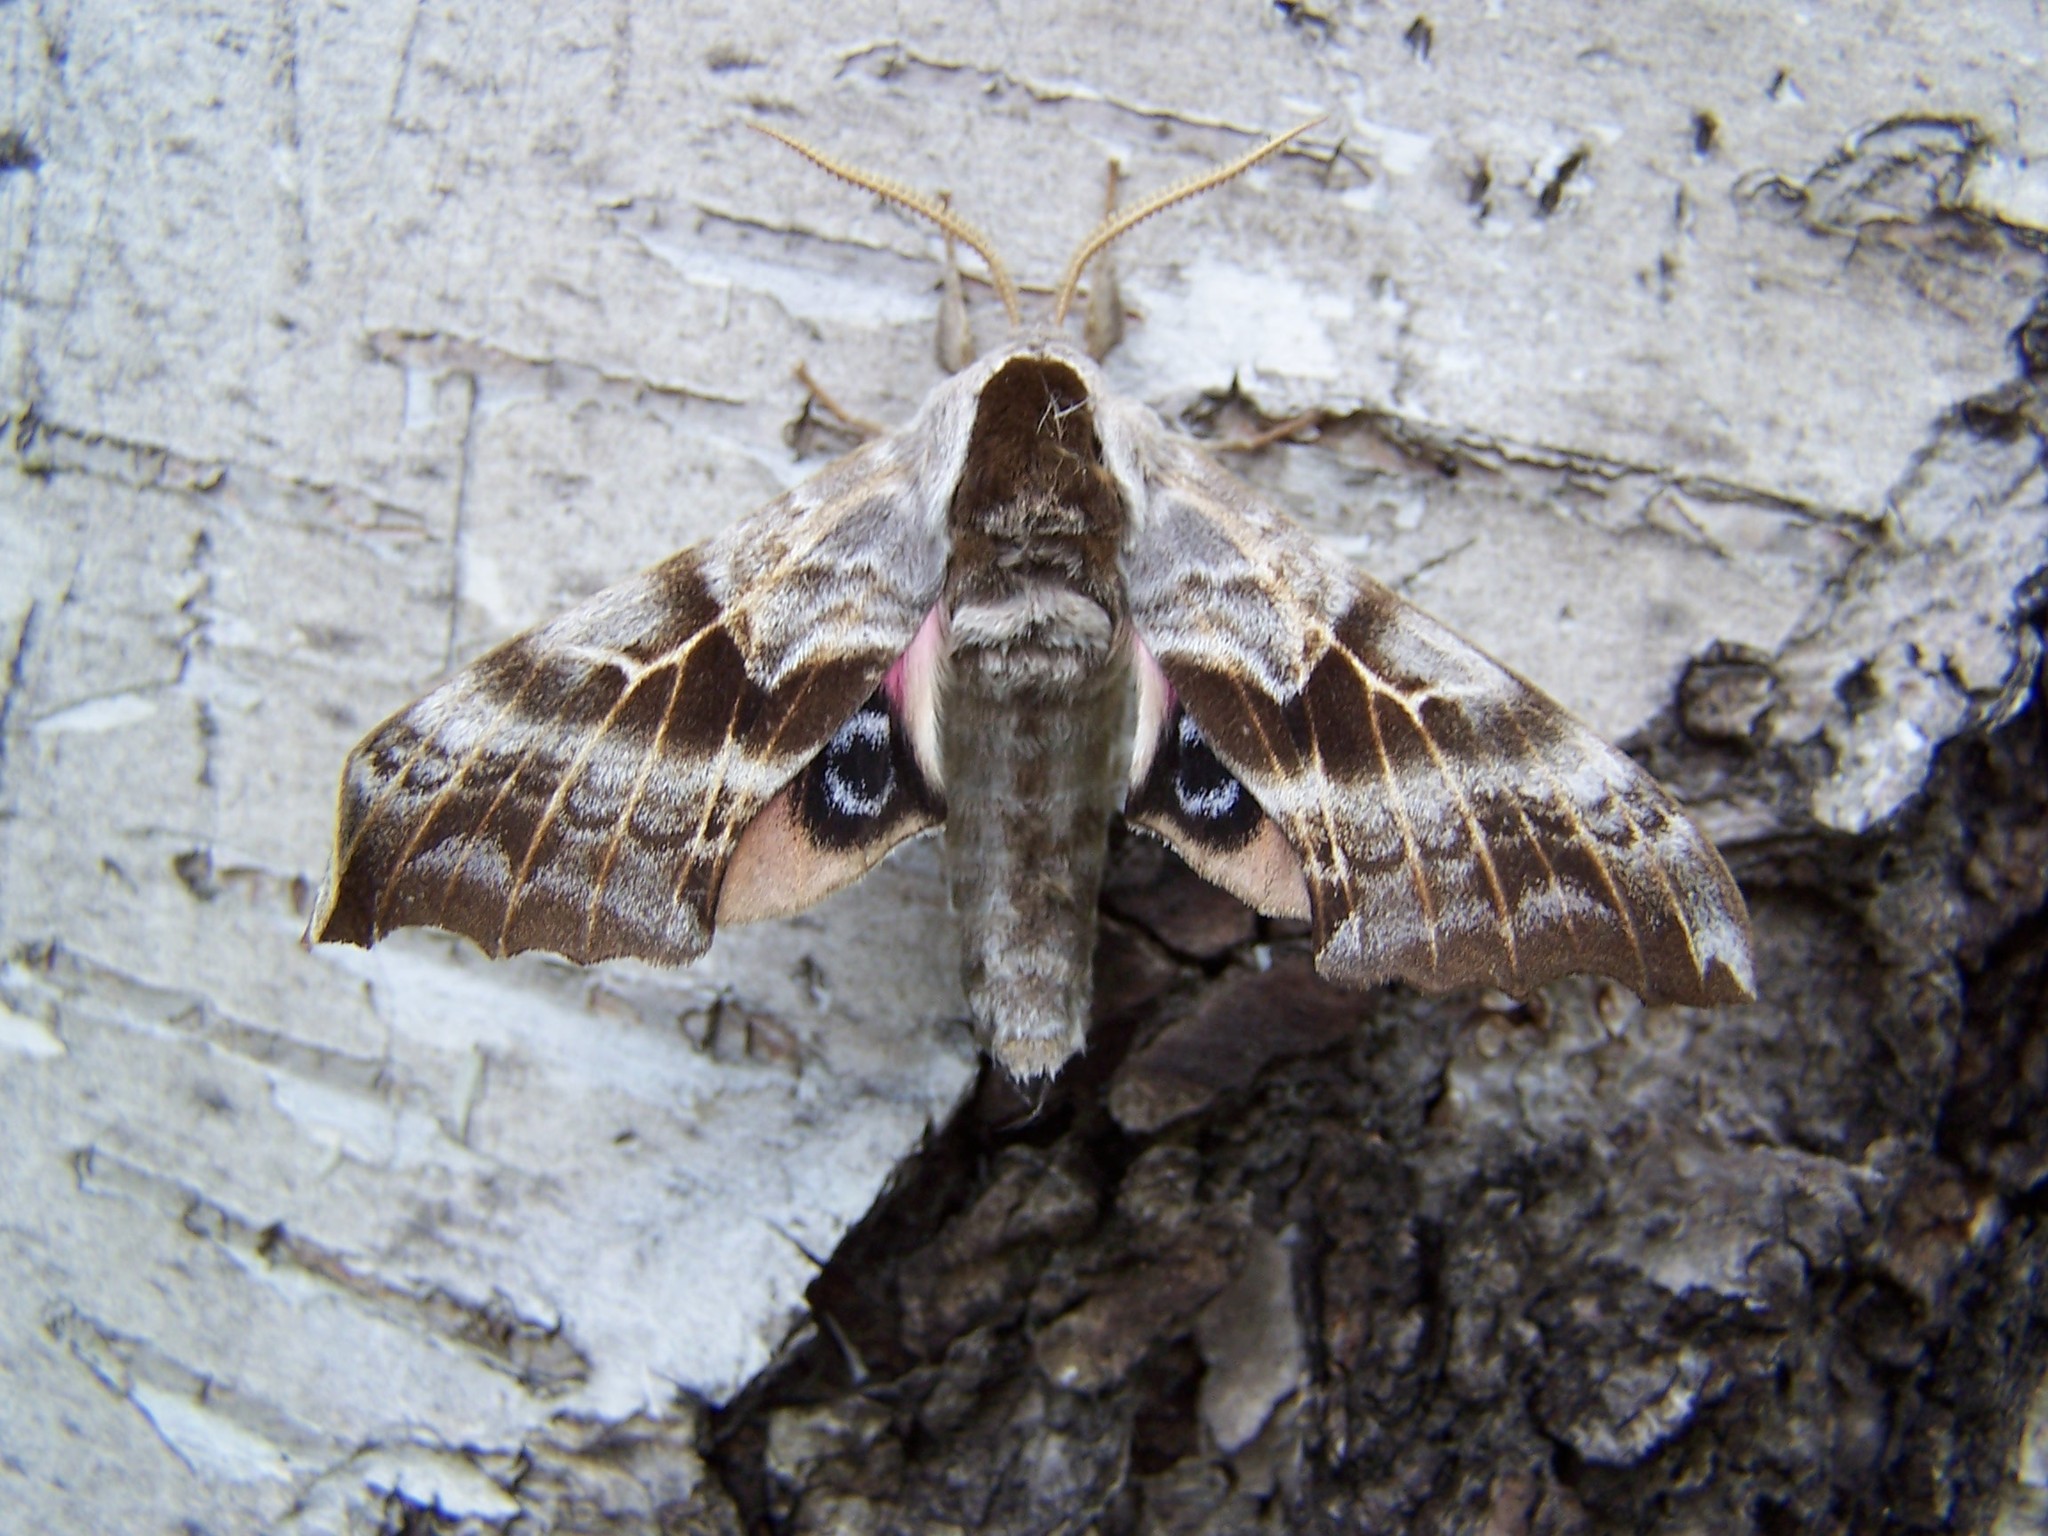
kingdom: Animalia
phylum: Arthropoda
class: Insecta
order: Lepidoptera
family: Sphingidae
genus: Smerinthus
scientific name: Smerinthus cerisyi
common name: Cerisy's sphinx moth
